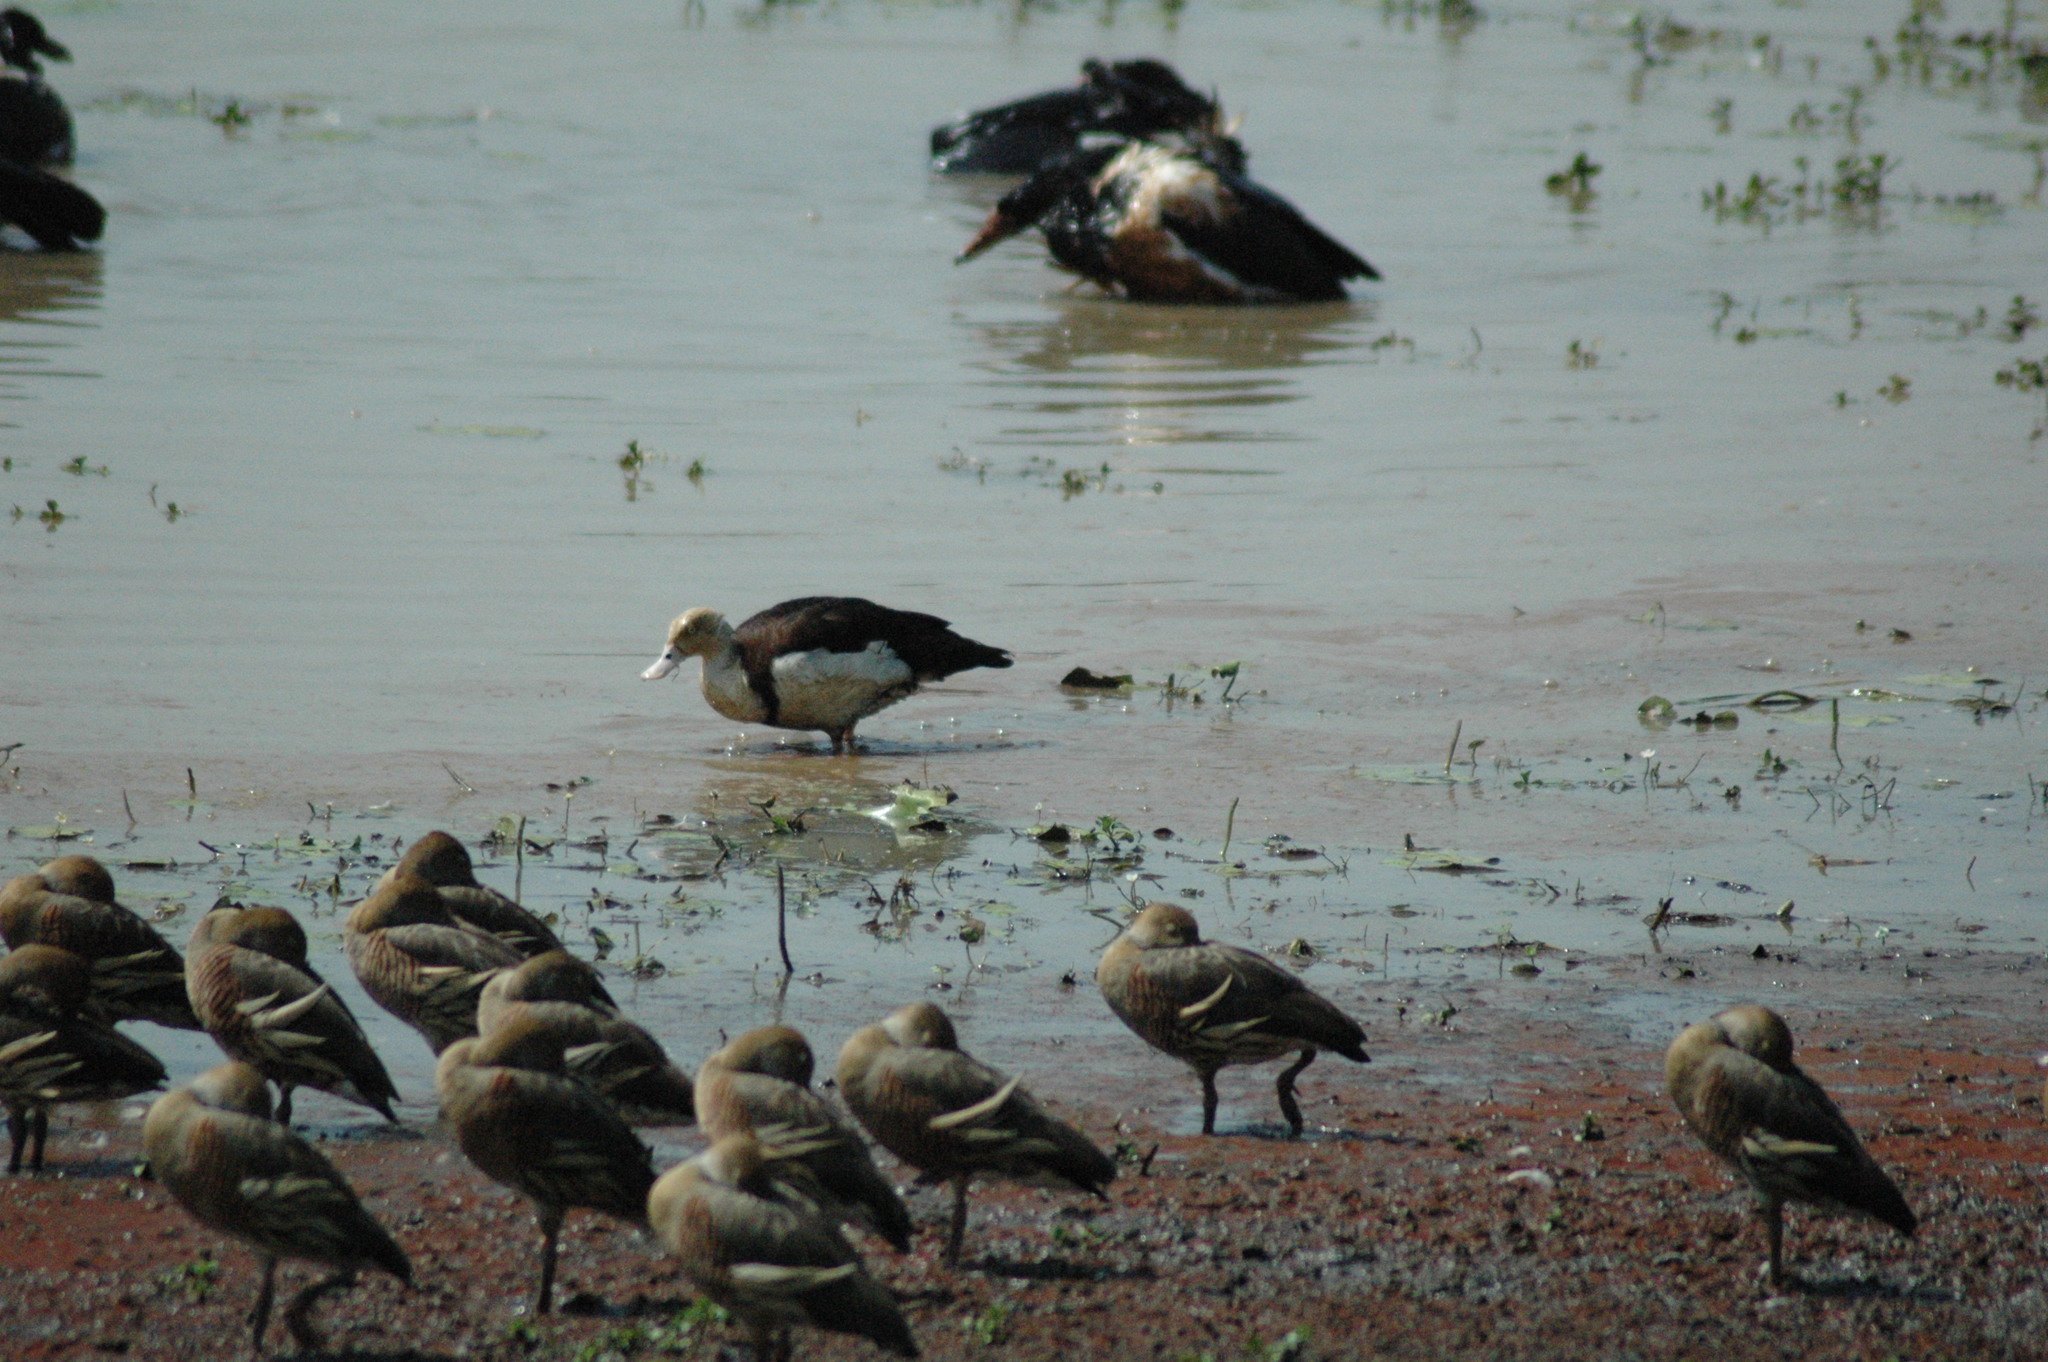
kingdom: Animalia
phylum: Chordata
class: Aves
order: Anseriformes
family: Anatidae
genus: Radjah
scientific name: Radjah radjah
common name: Radjah shelduck
